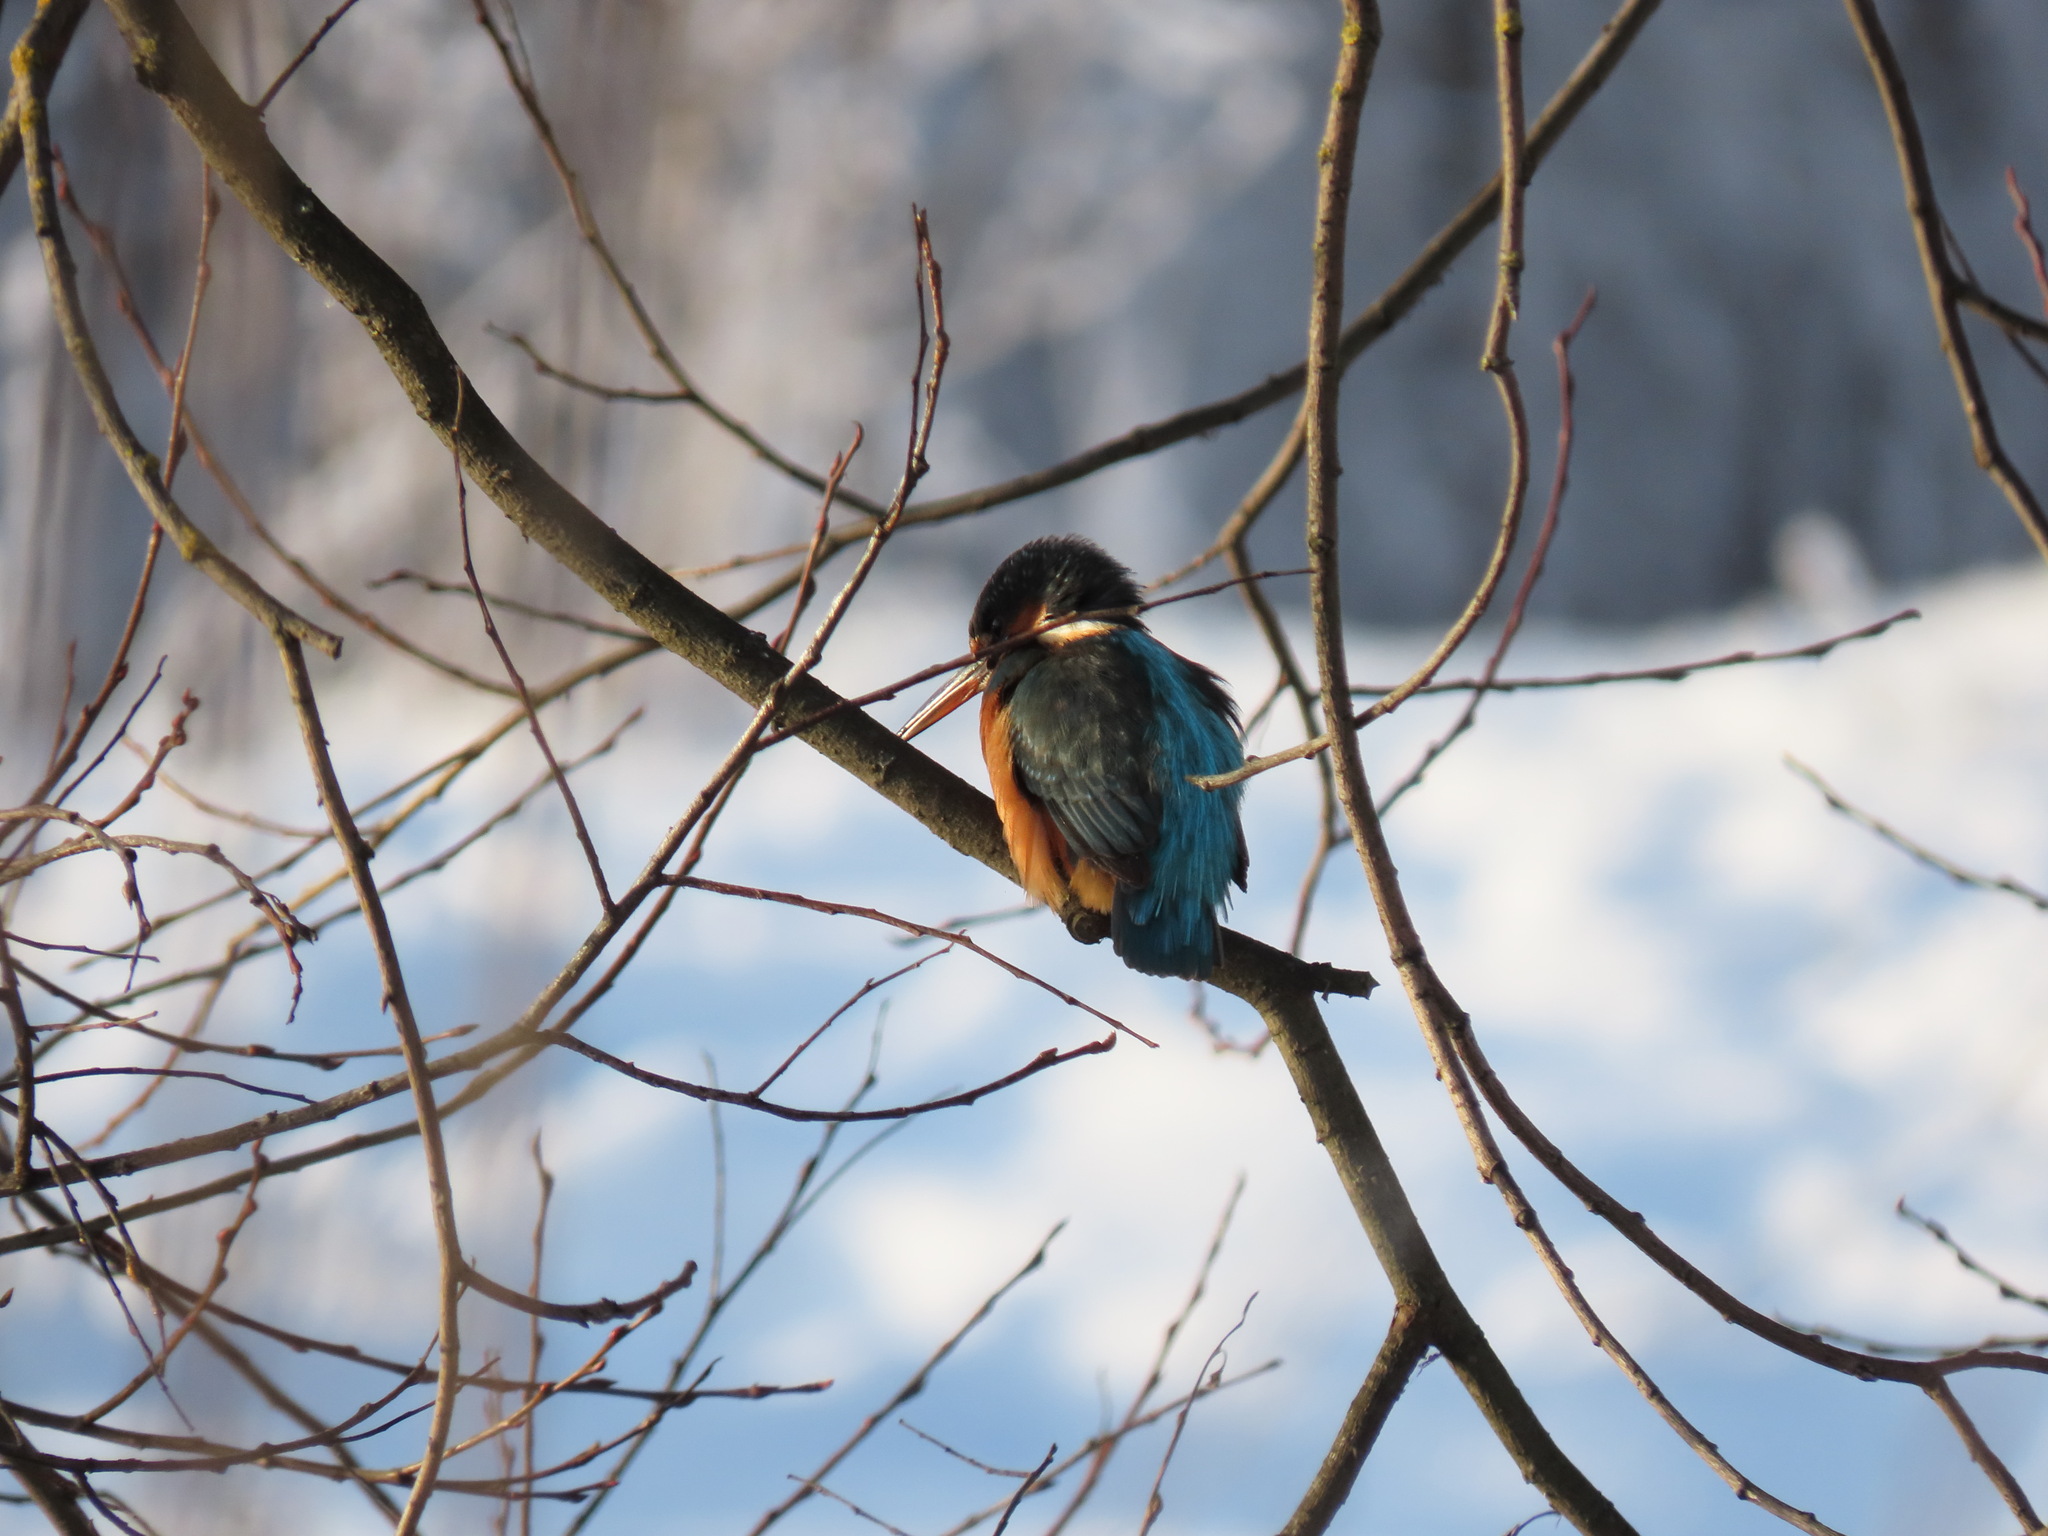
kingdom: Animalia
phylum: Chordata
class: Aves
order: Coraciiformes
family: Alcedinidae
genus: Alcedo
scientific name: Alcedo atthis
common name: Common kingfisher
